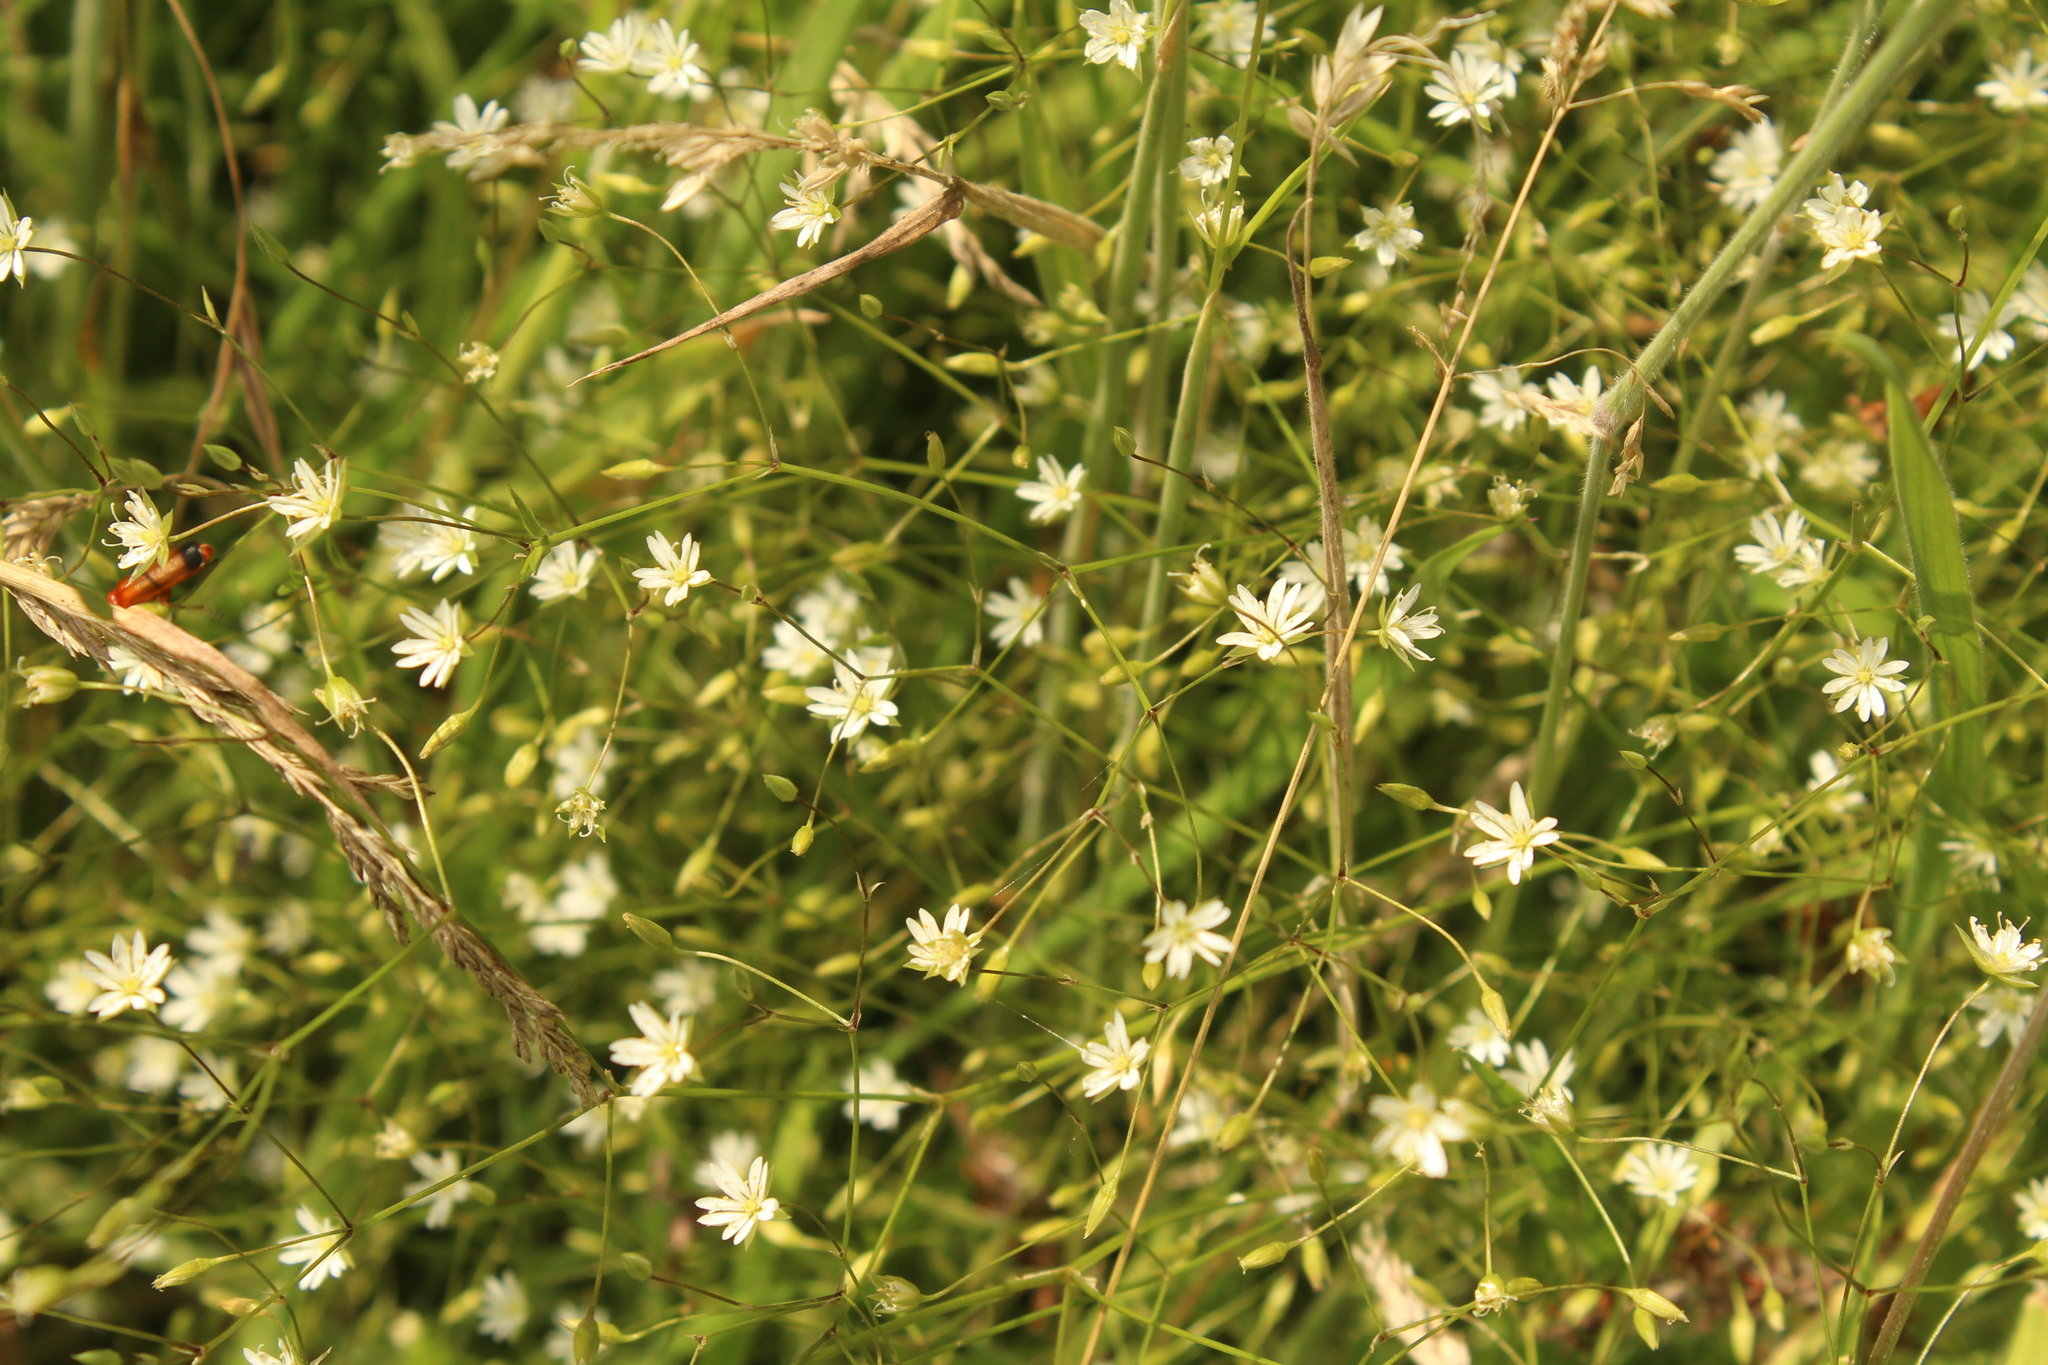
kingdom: Plantae
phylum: Tracheophyta
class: Magnoliopsida
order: Caryophyllales
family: Caryophyllaceae
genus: Stellaria
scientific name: Stellaria graminea
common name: Grass-like starwort
